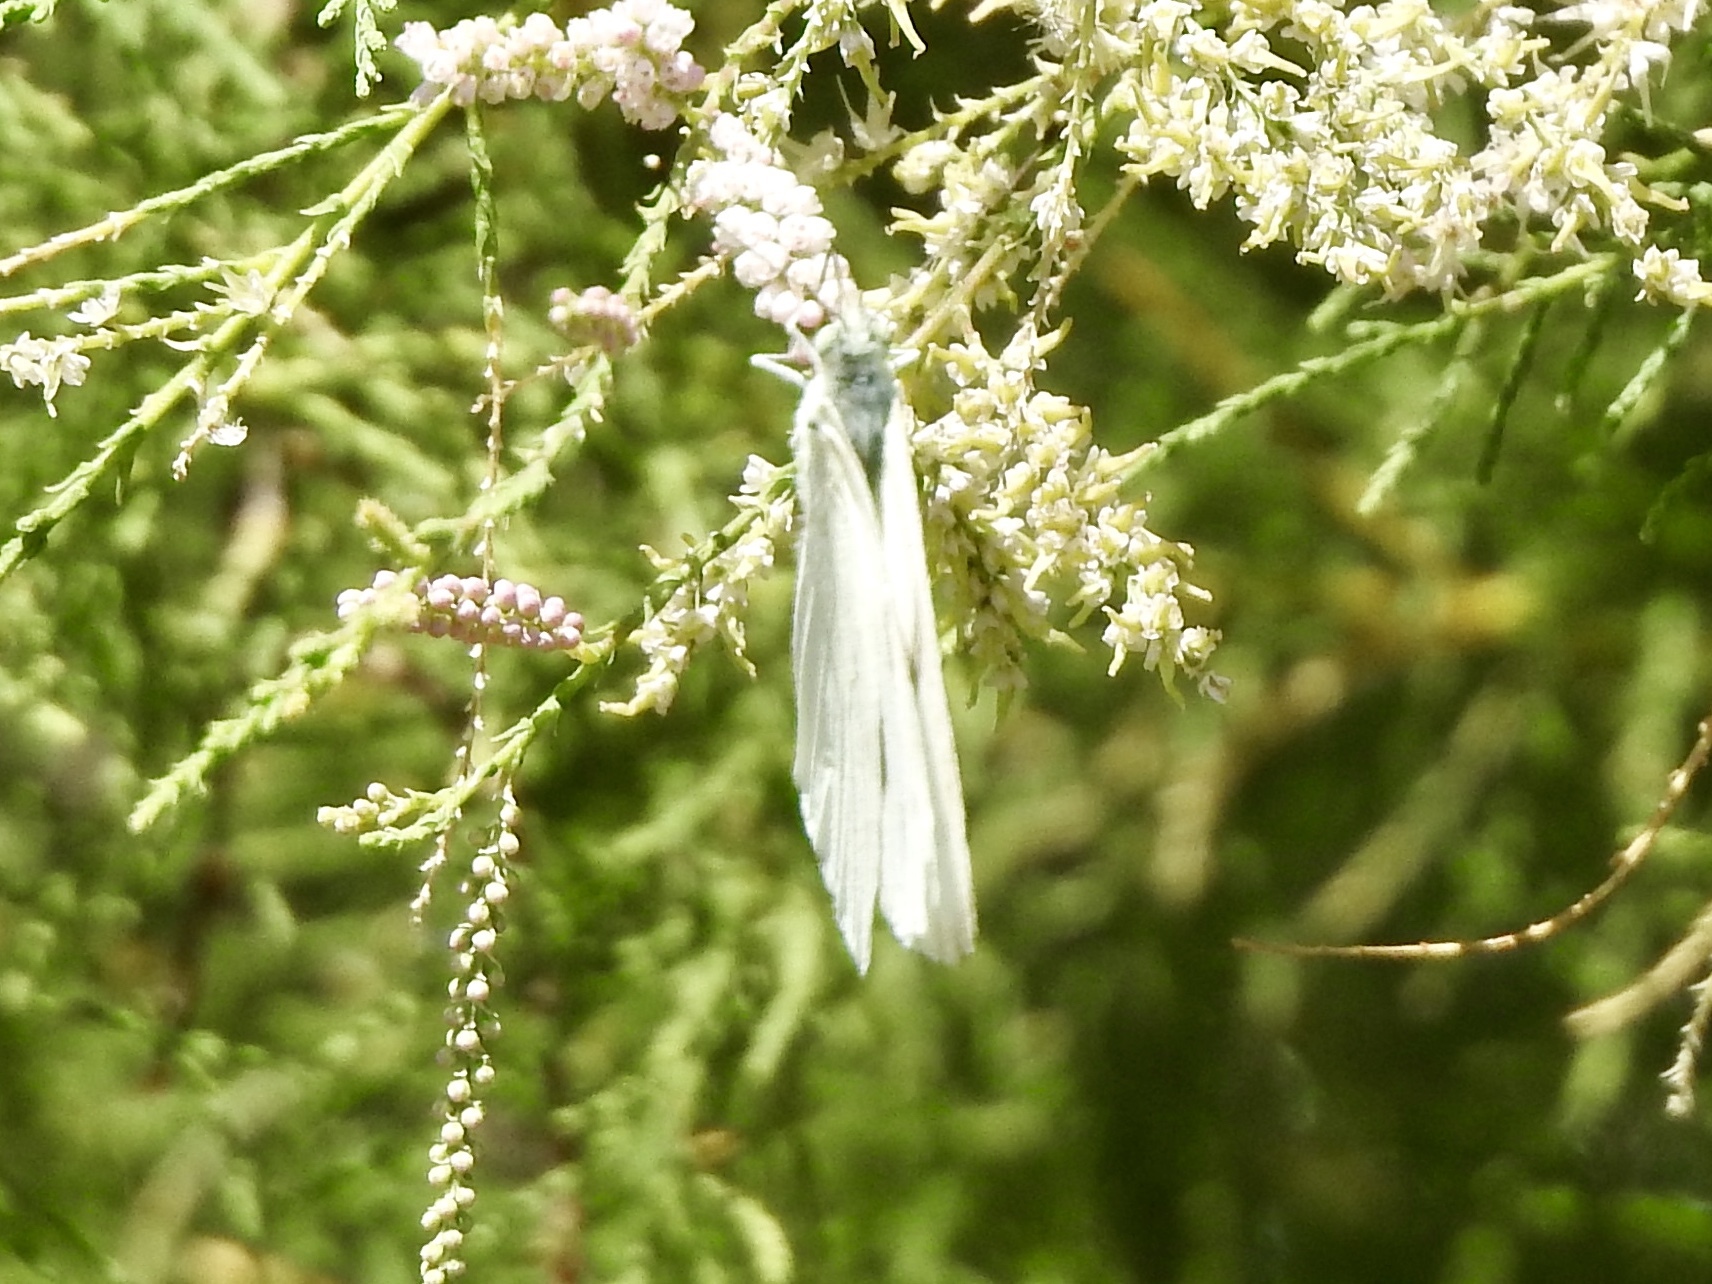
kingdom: Animalia
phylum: Arthropoda
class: Insecta
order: Lepidoptera
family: Pieridae
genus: Pontia
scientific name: Pontia protodice
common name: Checkered white
